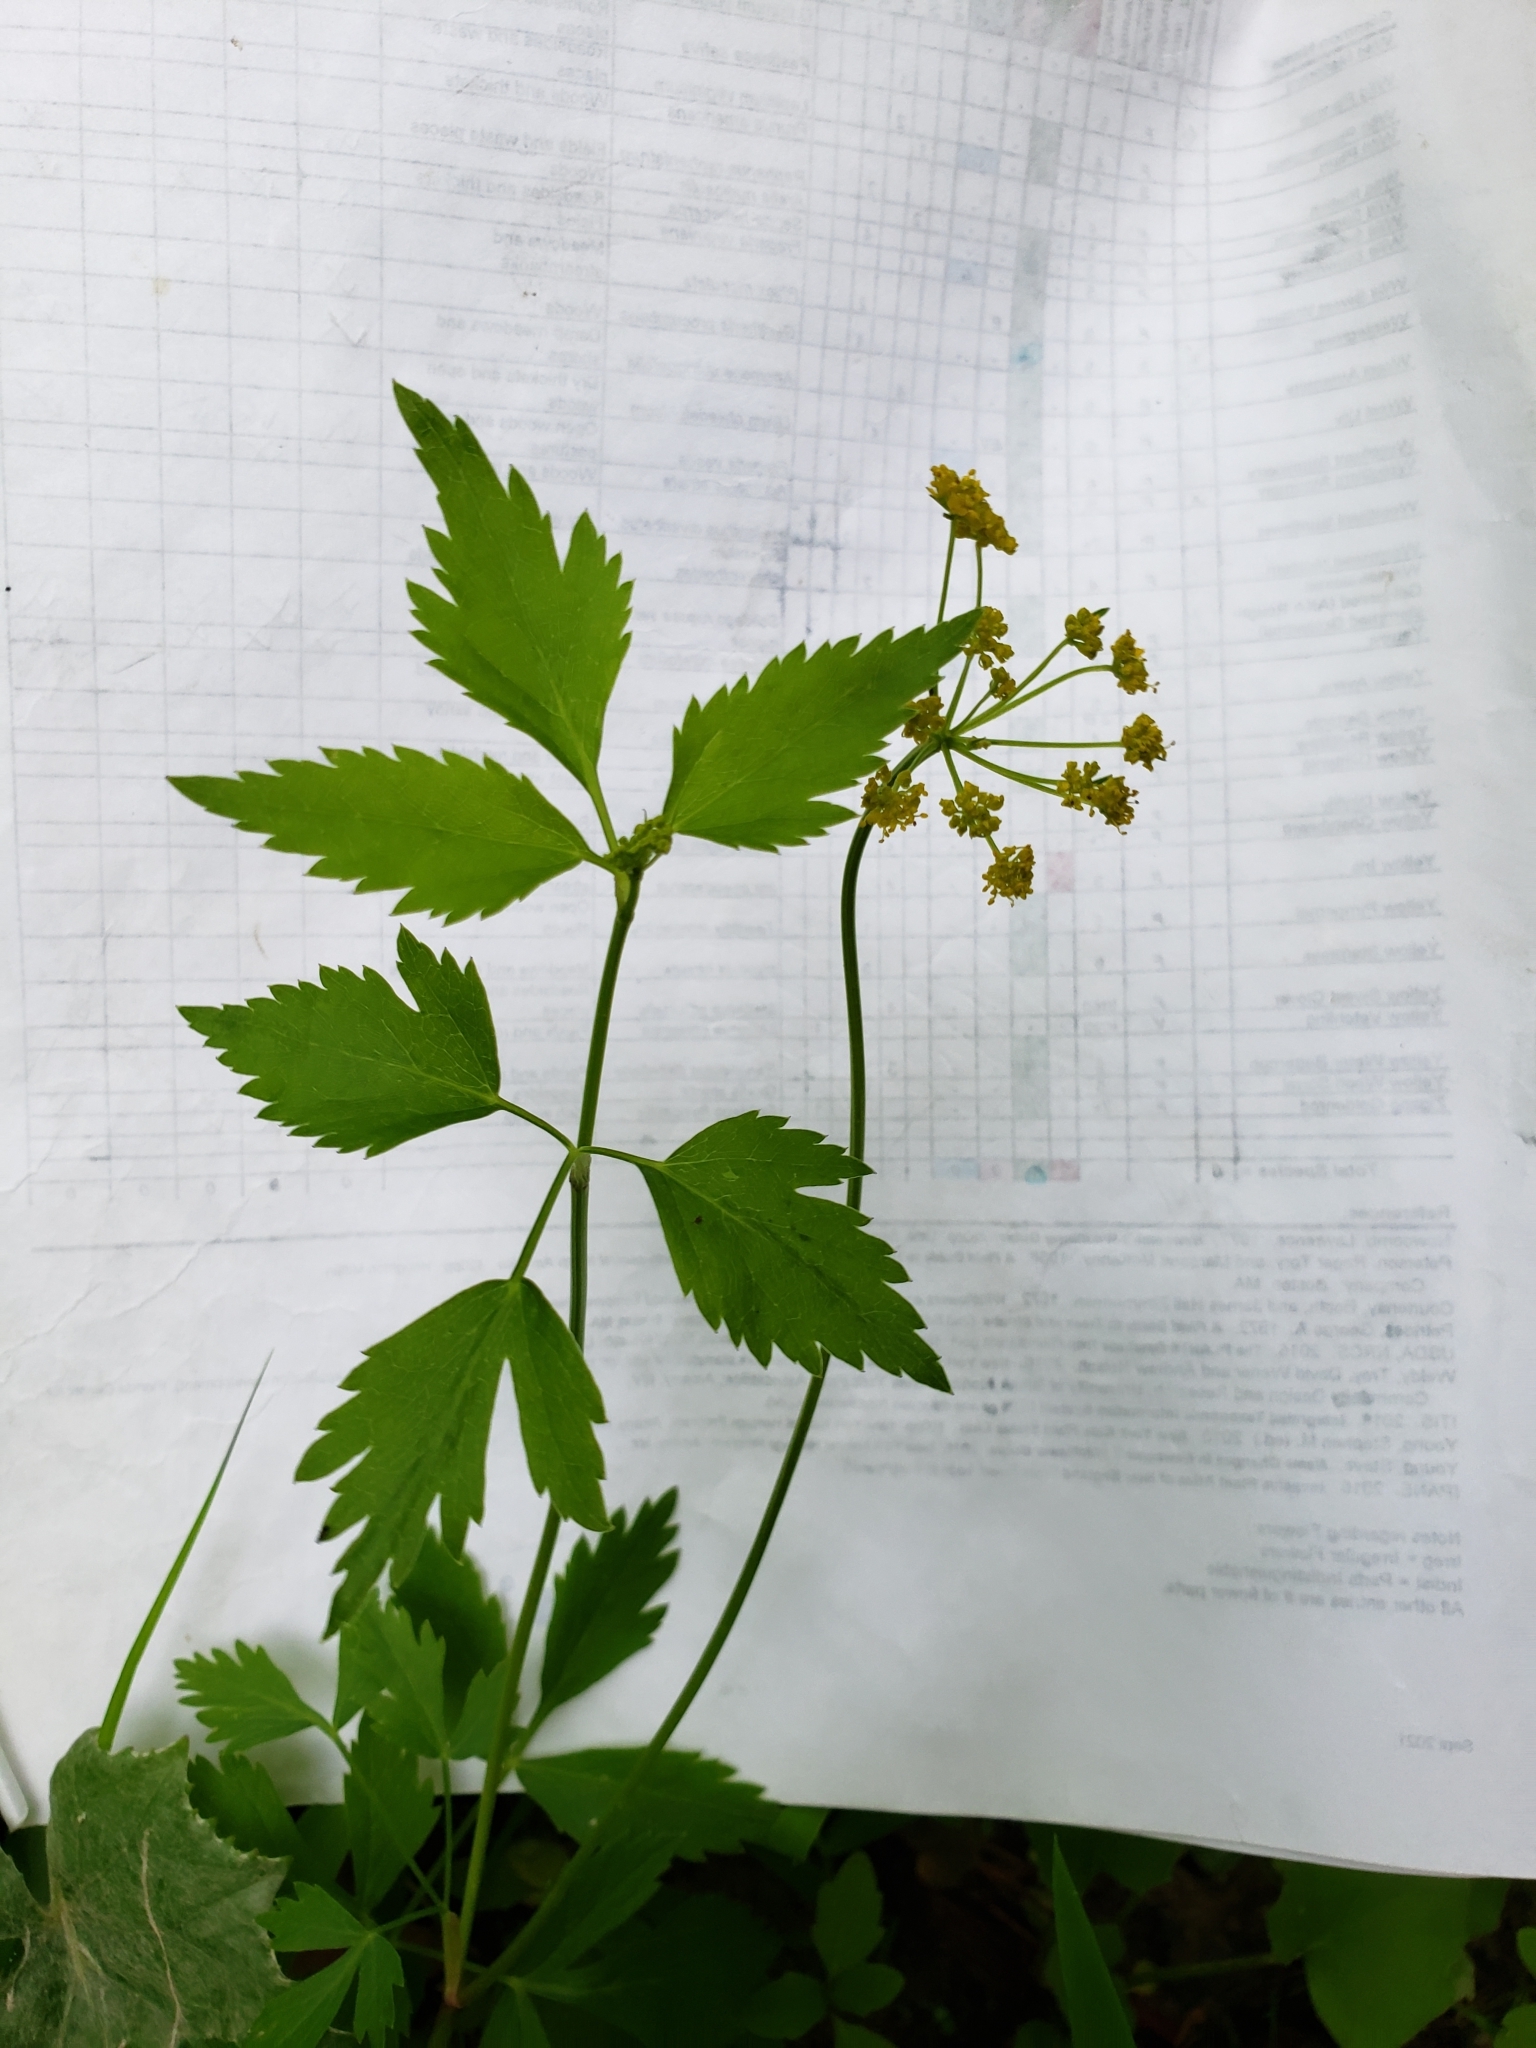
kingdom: Plantae
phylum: Tracheophyta
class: Magnoliopsida
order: Apiales
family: Apiaceae
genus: Zizia
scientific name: Zizia aurea
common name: Golden alexanders
